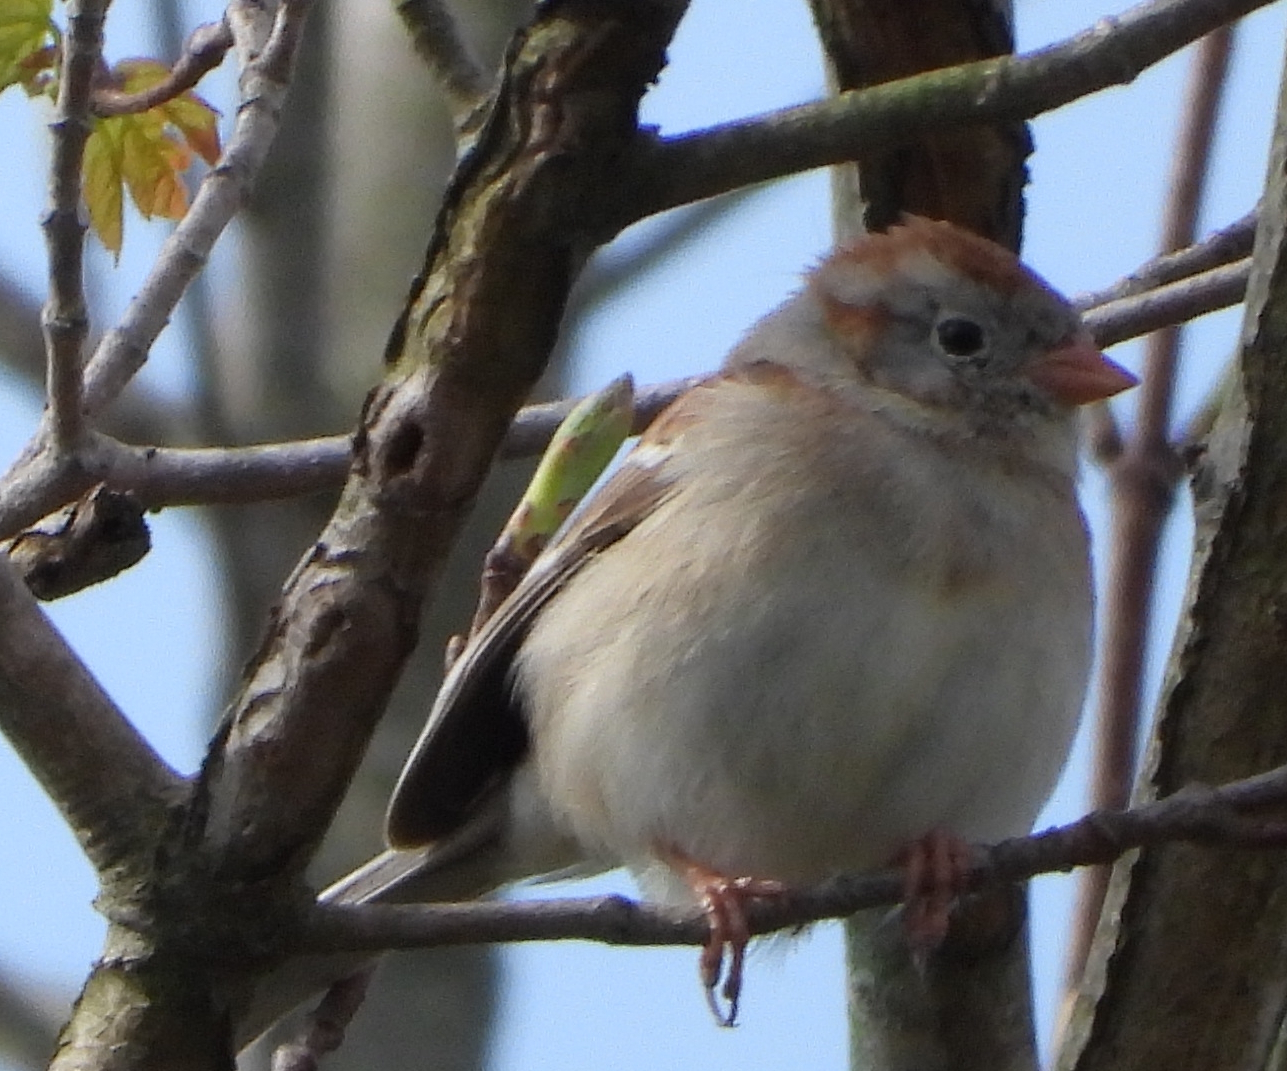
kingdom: Animalia
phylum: Chordata
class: Aves
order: Passeriformes
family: Passerellidae
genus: Spizella
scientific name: Spizella pusilla
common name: Field sparrow
